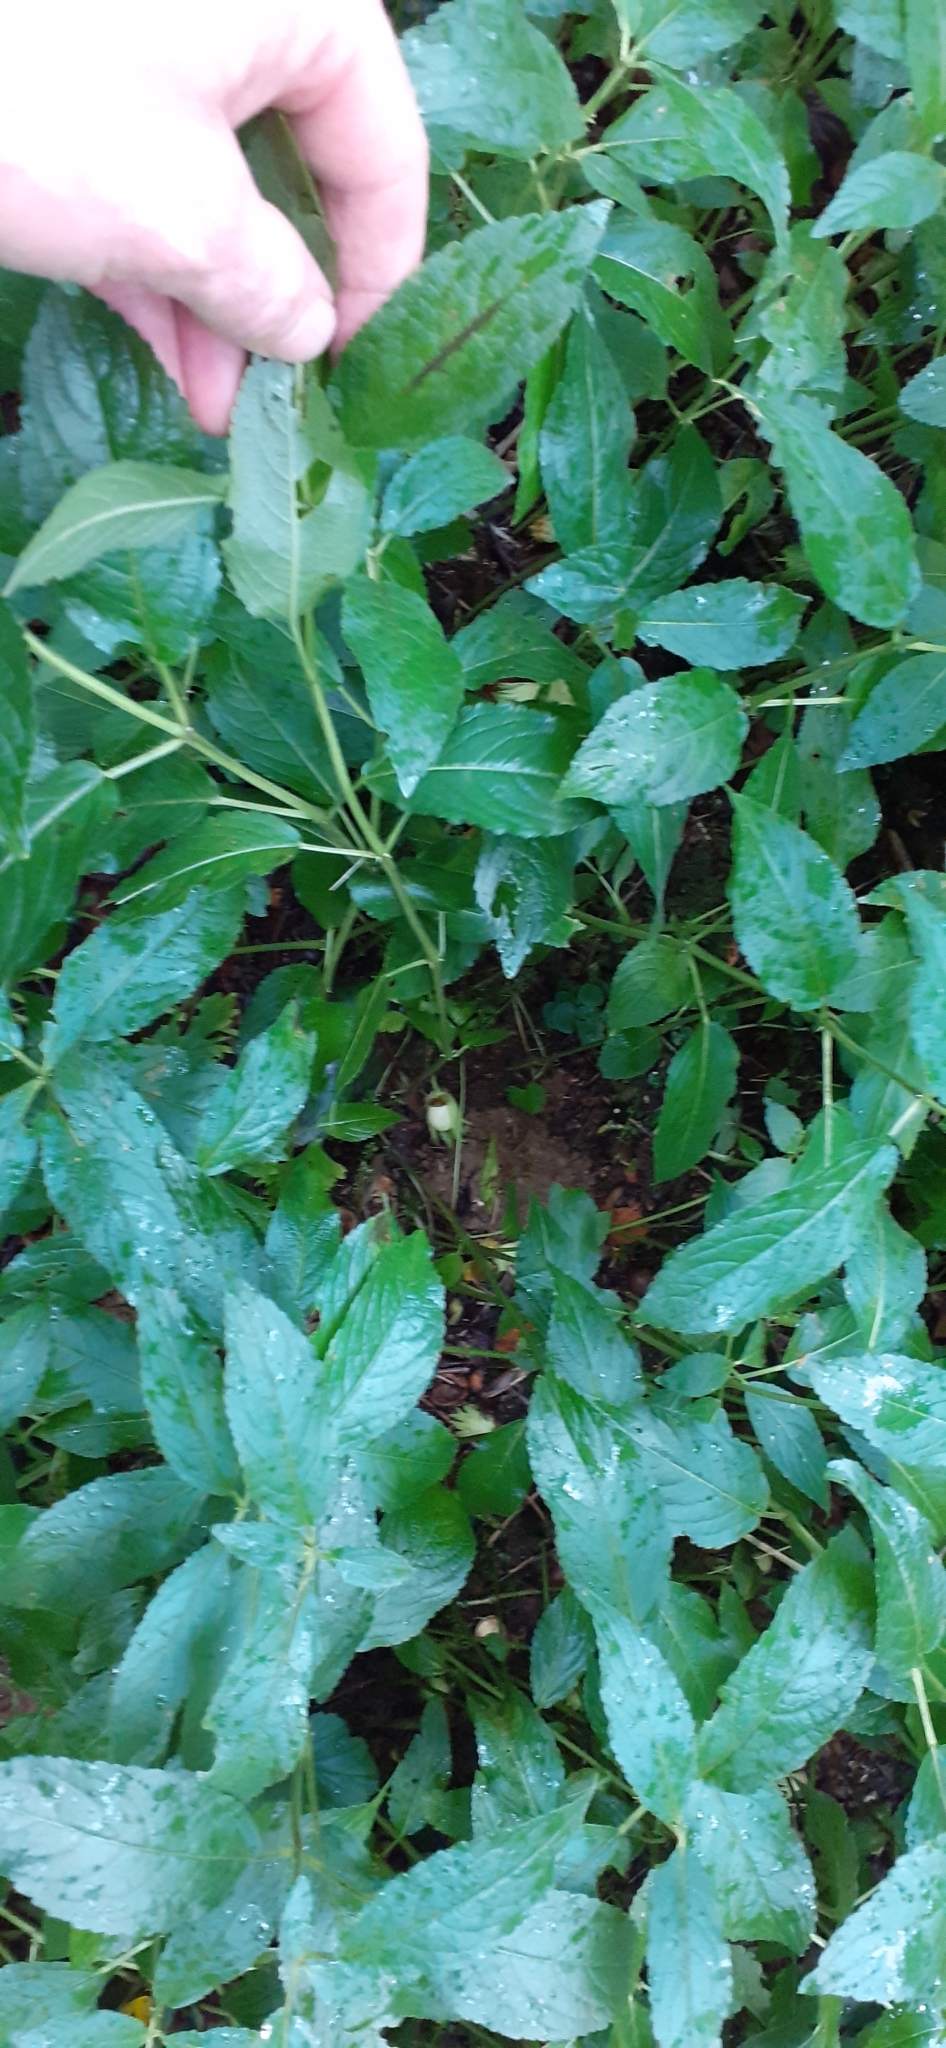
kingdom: Plantae
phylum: Tracheophyta
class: Magnoliopsida
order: Malpighiales
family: Euphorbiaceae
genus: Mercurialis
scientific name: Mercurialis perennis
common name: Dog mercury
